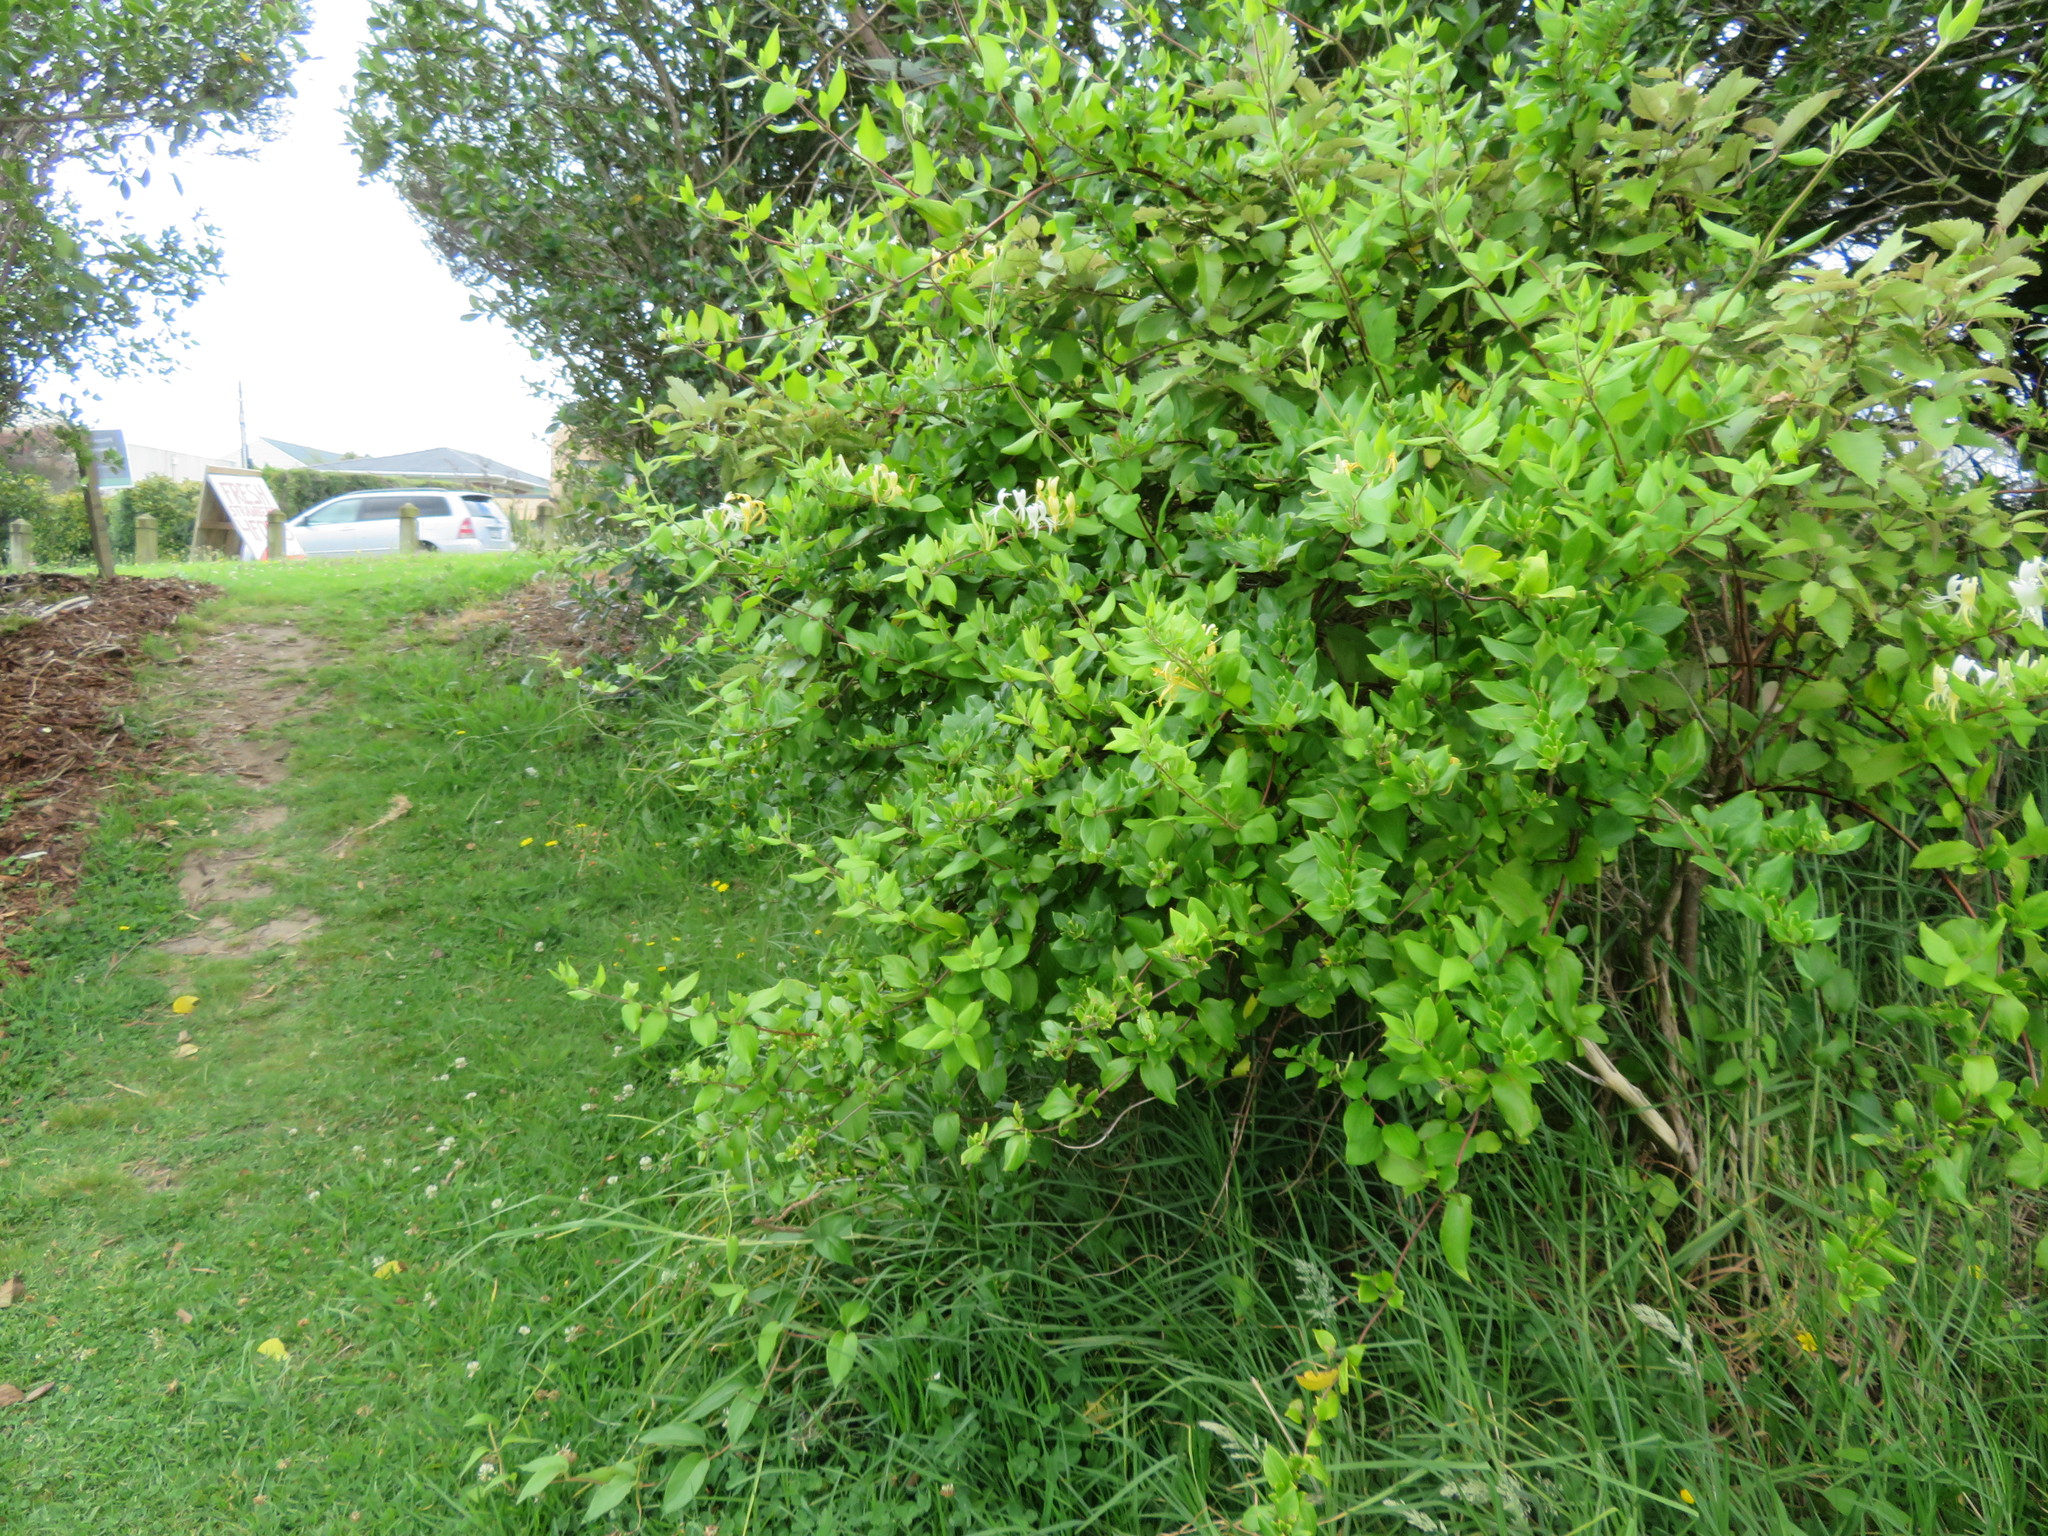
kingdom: Plantae
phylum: Tracheophyta
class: Liliopsida
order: Poales
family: Poaceae
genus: Cenchrus
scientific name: Cenchrus clandestinus
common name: Kikuyugrass
